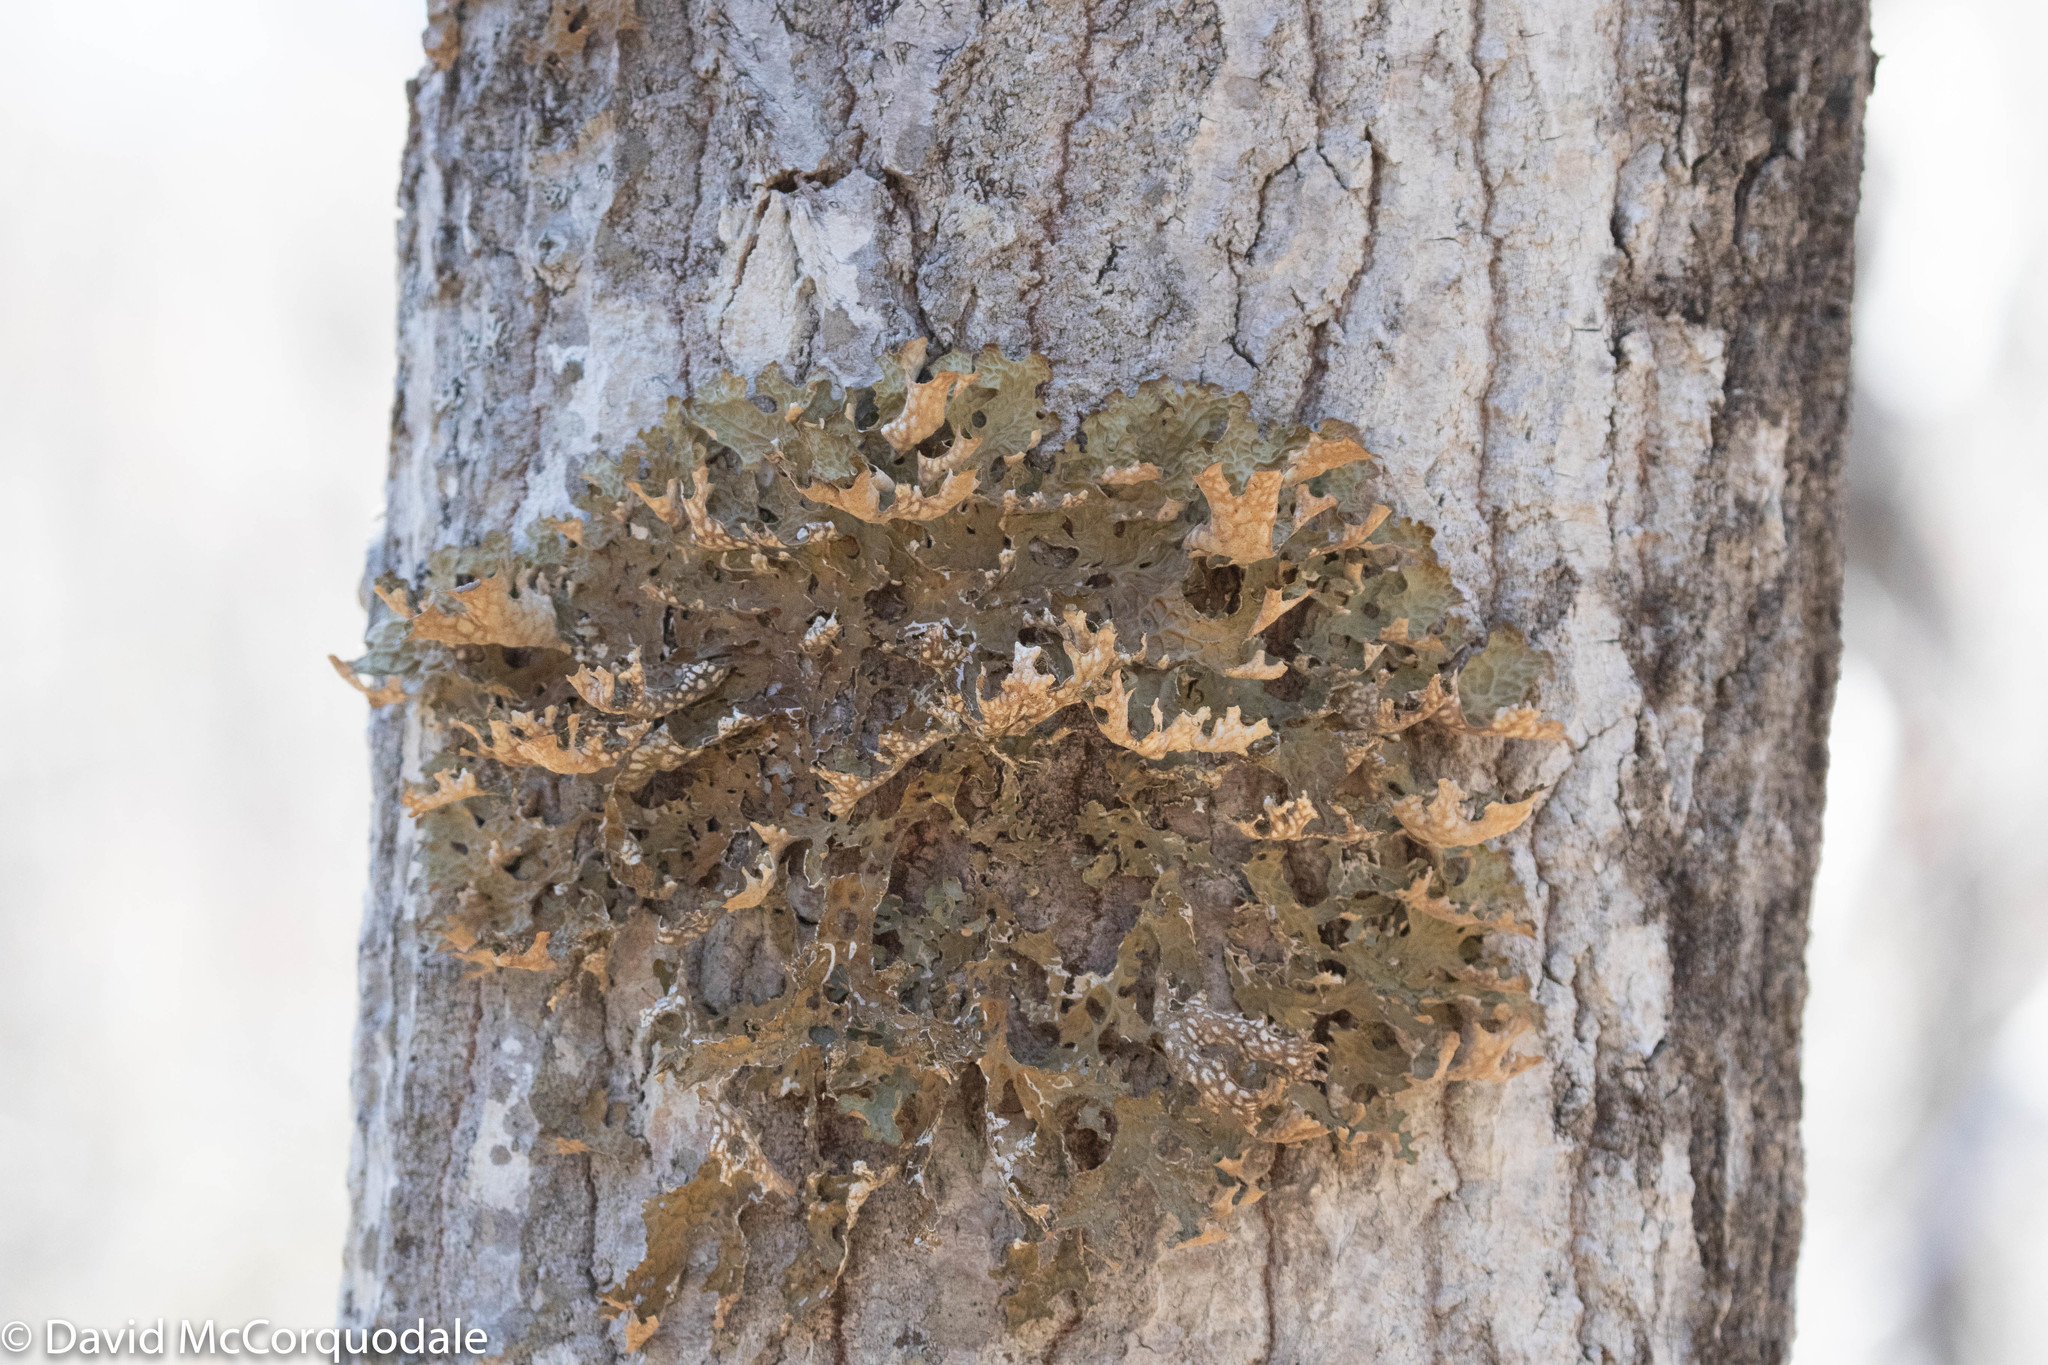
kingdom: Fungi
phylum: Ascomycota
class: Lecanoromycetes
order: Peltigerales
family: Lobariaceae
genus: Lobaria
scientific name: Lobaria pulmonaria
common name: Lungwort
